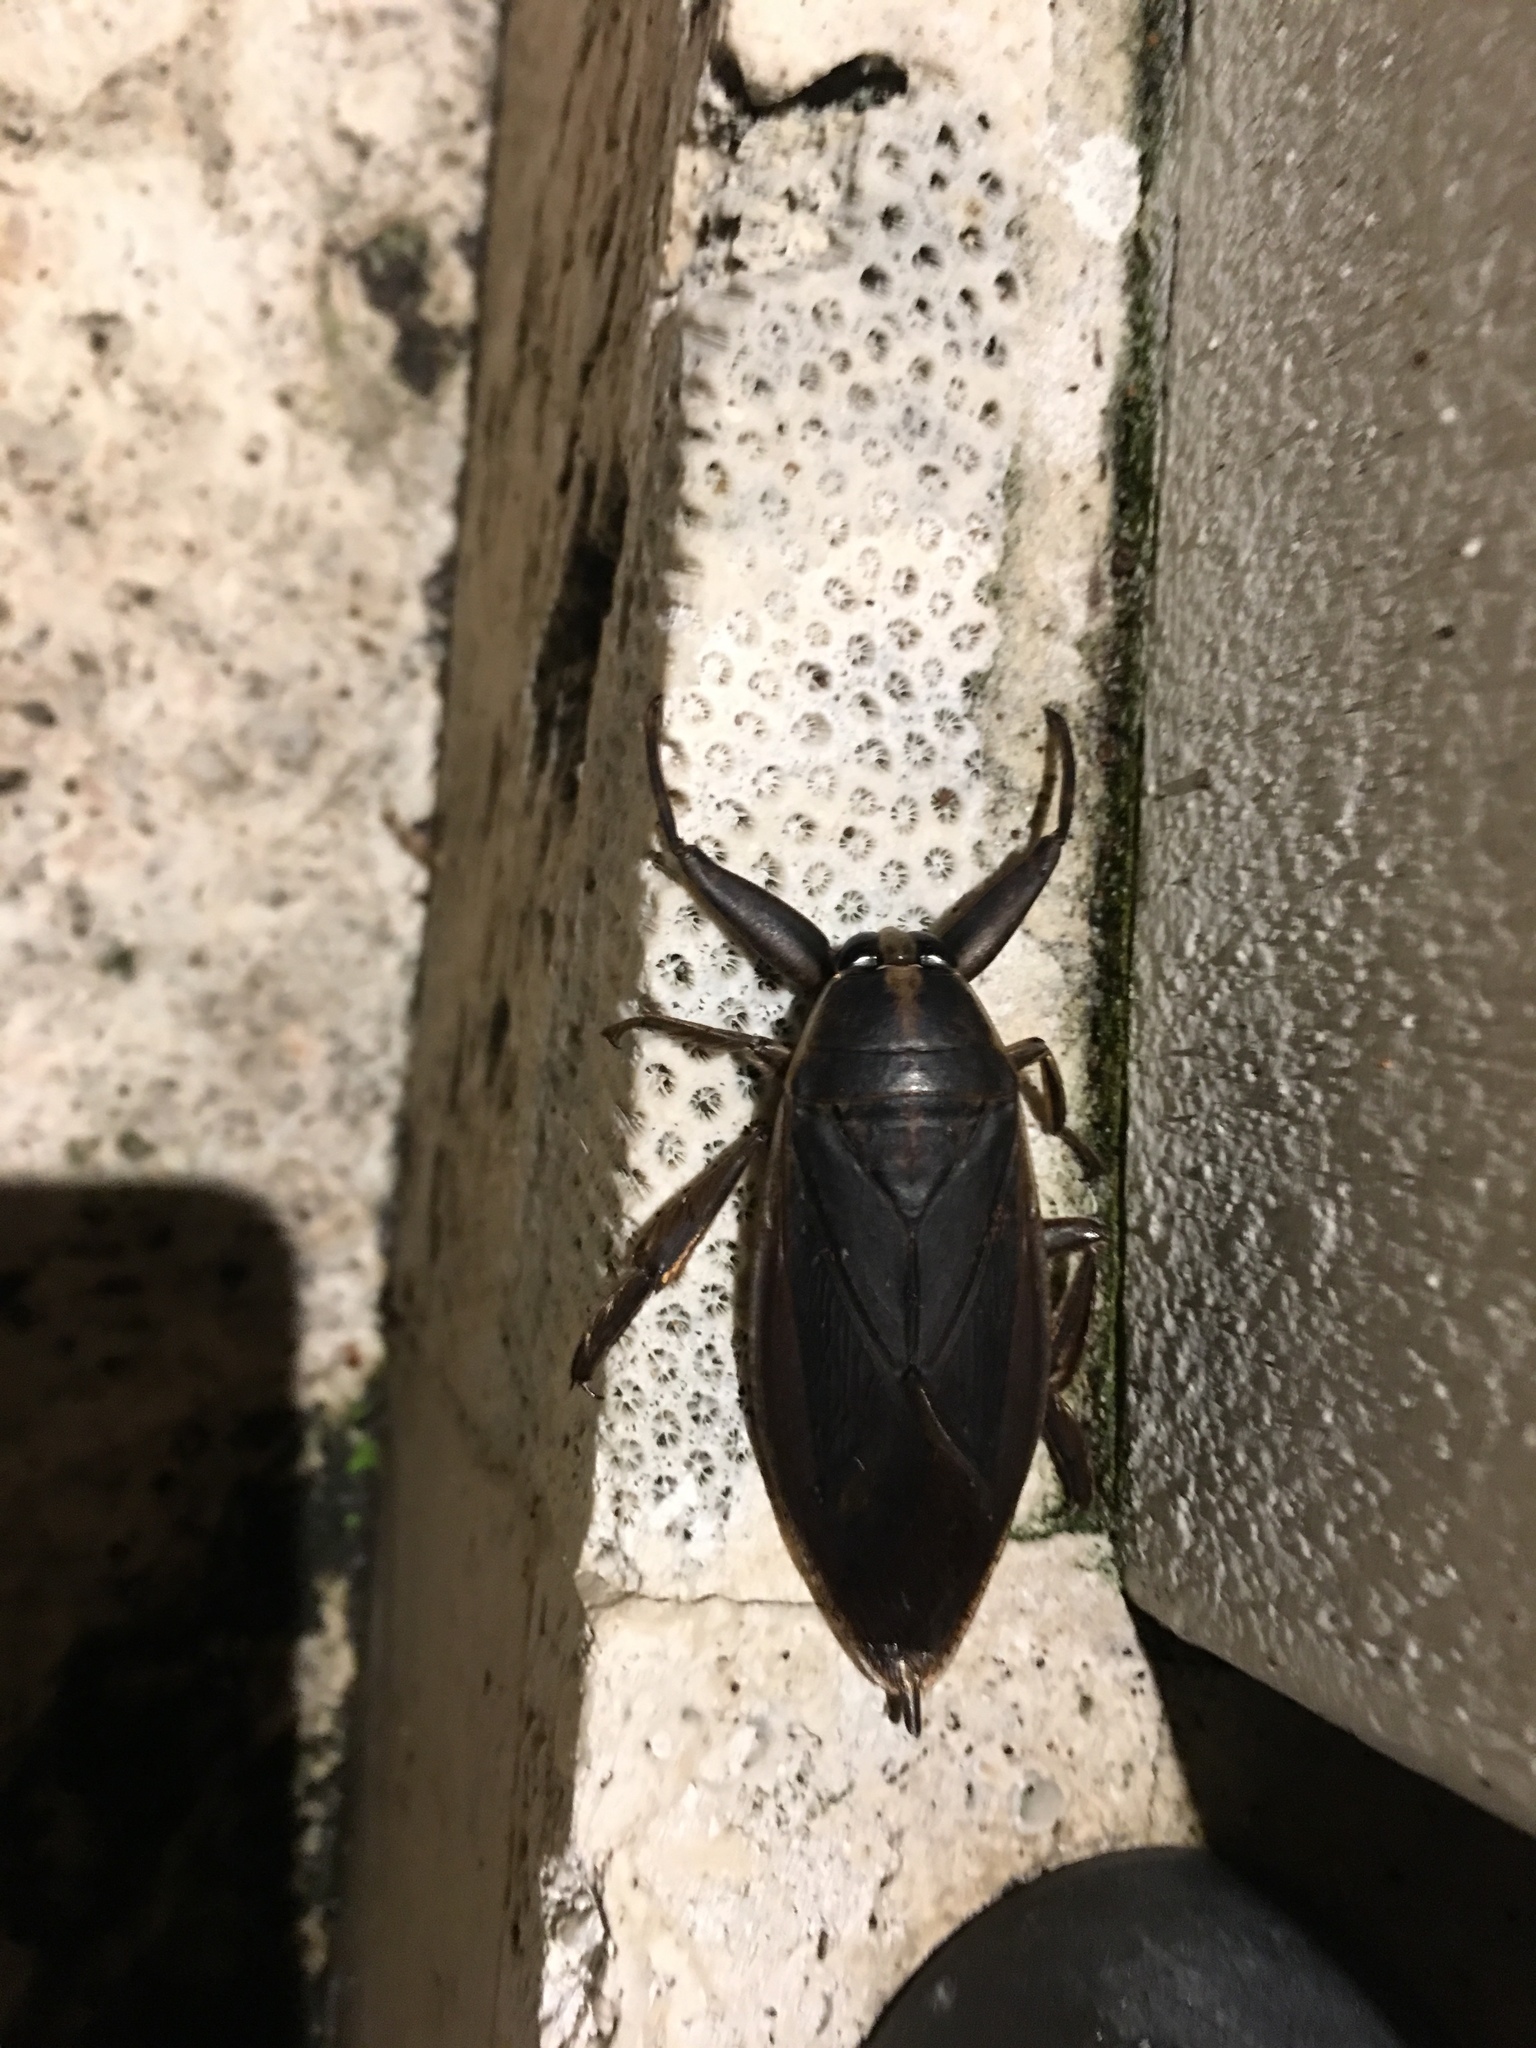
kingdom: Animalia
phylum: Arthropoda
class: Insecta
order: Hemiptera
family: Belostomatidae
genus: Benacus
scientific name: Benacus griseus
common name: Eastern toe-biter
